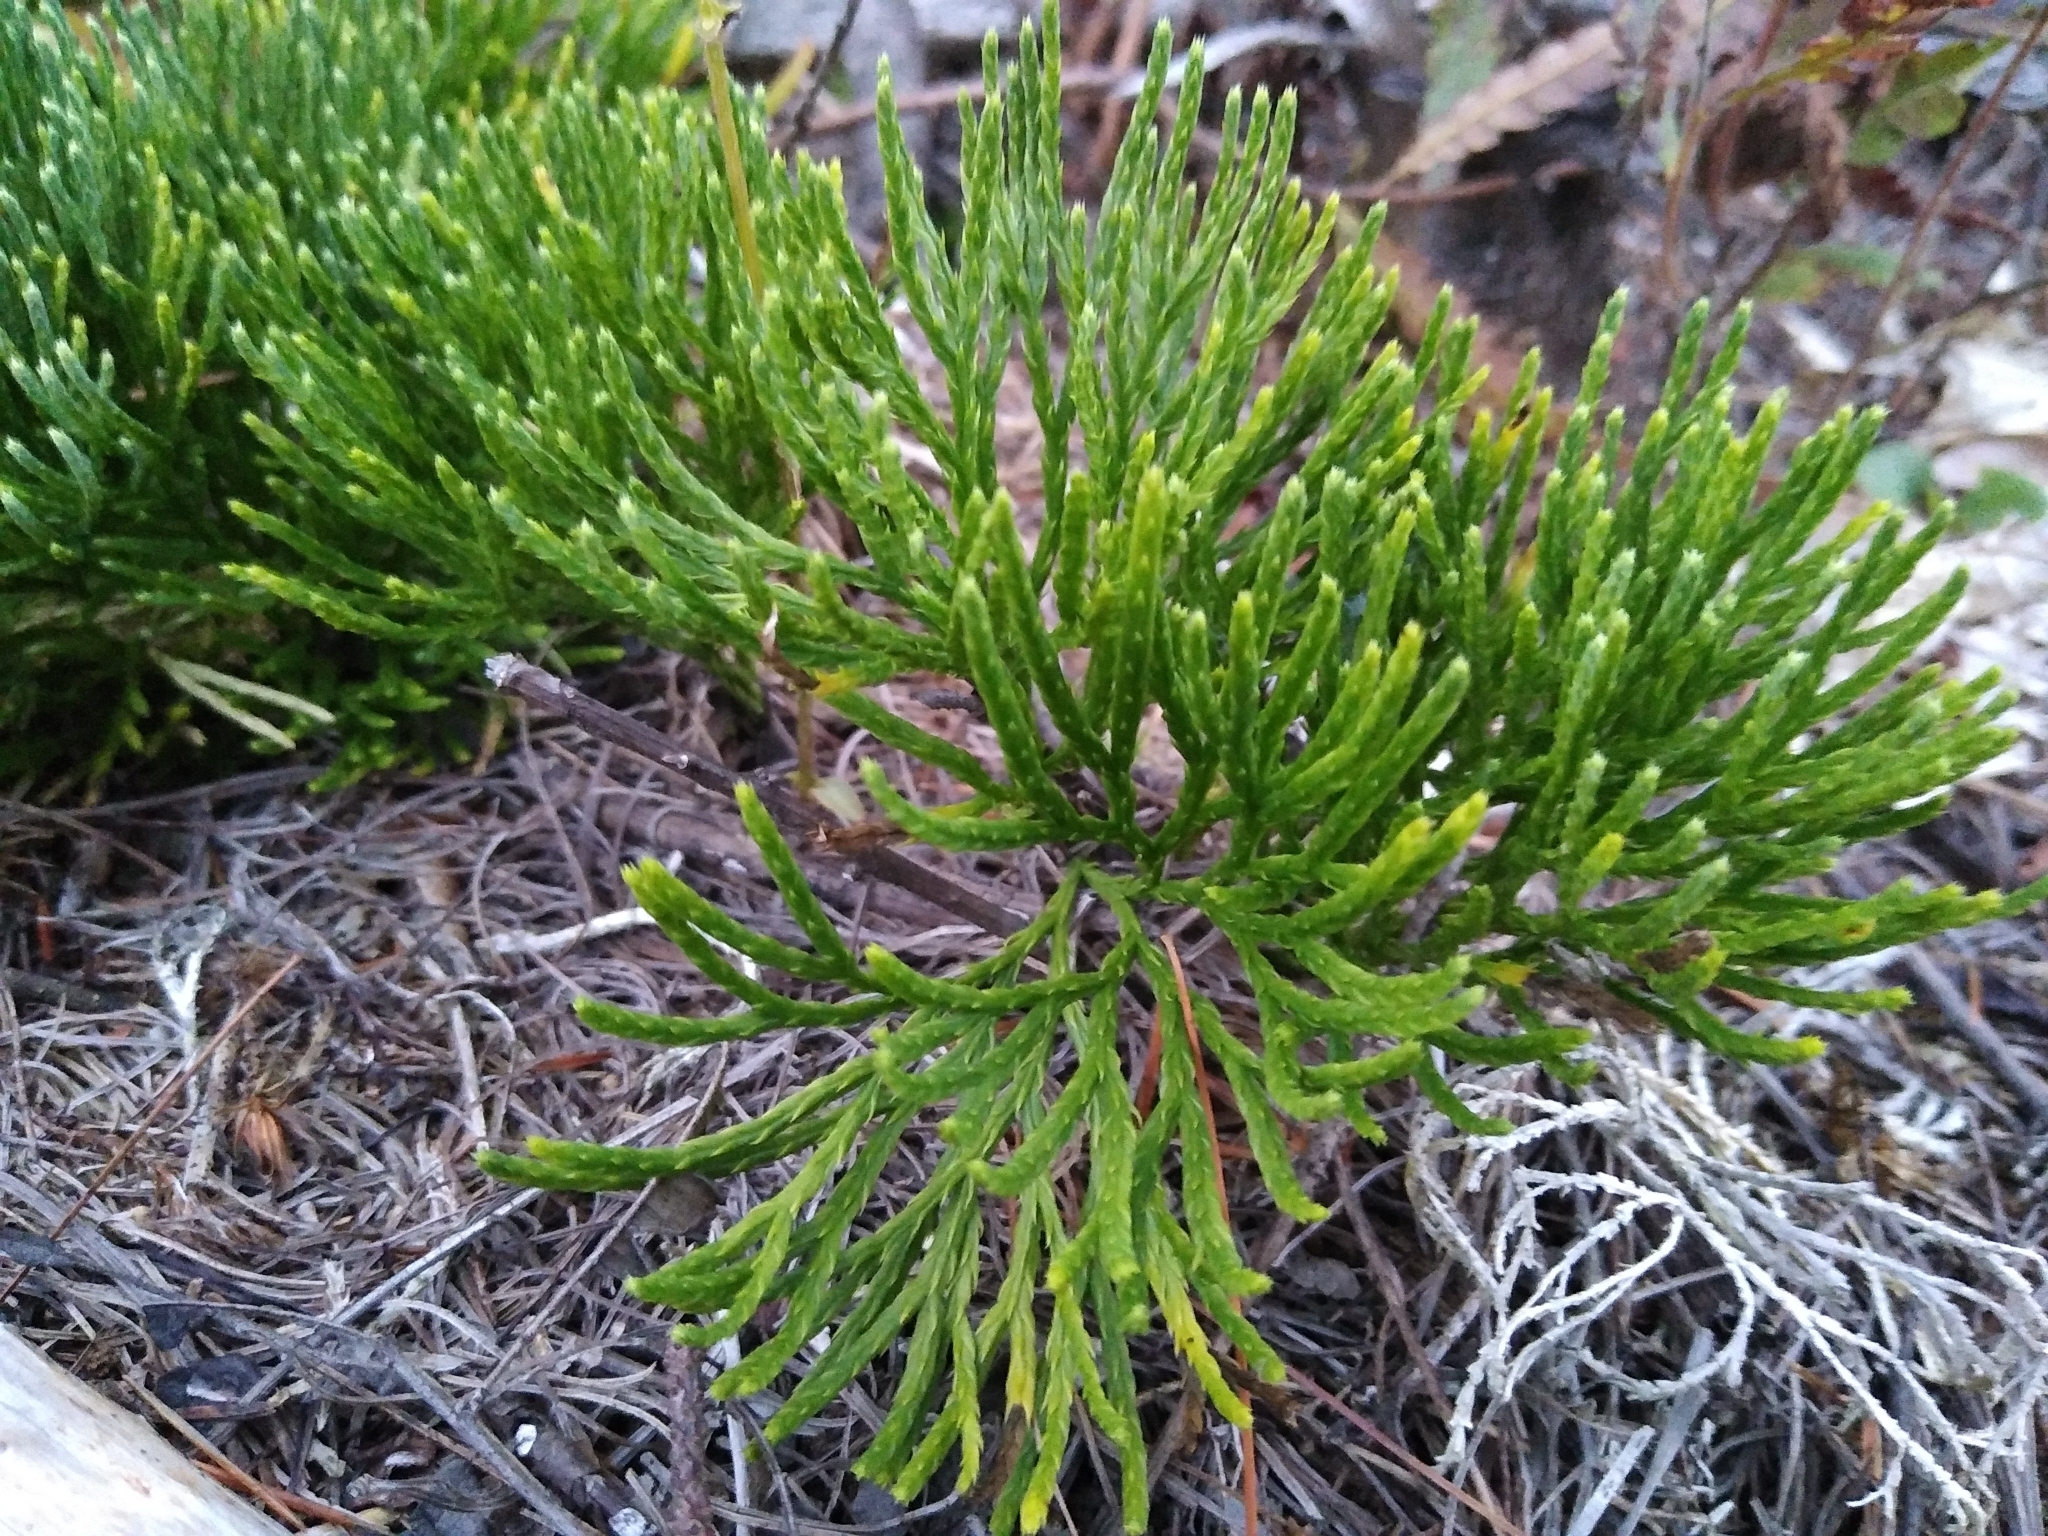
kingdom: Plantae
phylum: Tracheophyta
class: Lycopodiopsida
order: Lycopodiales
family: Lycopodiaceae
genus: Diphasiastrum
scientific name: Diphasiastrum tristachyum
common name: Blue ground-cedar
